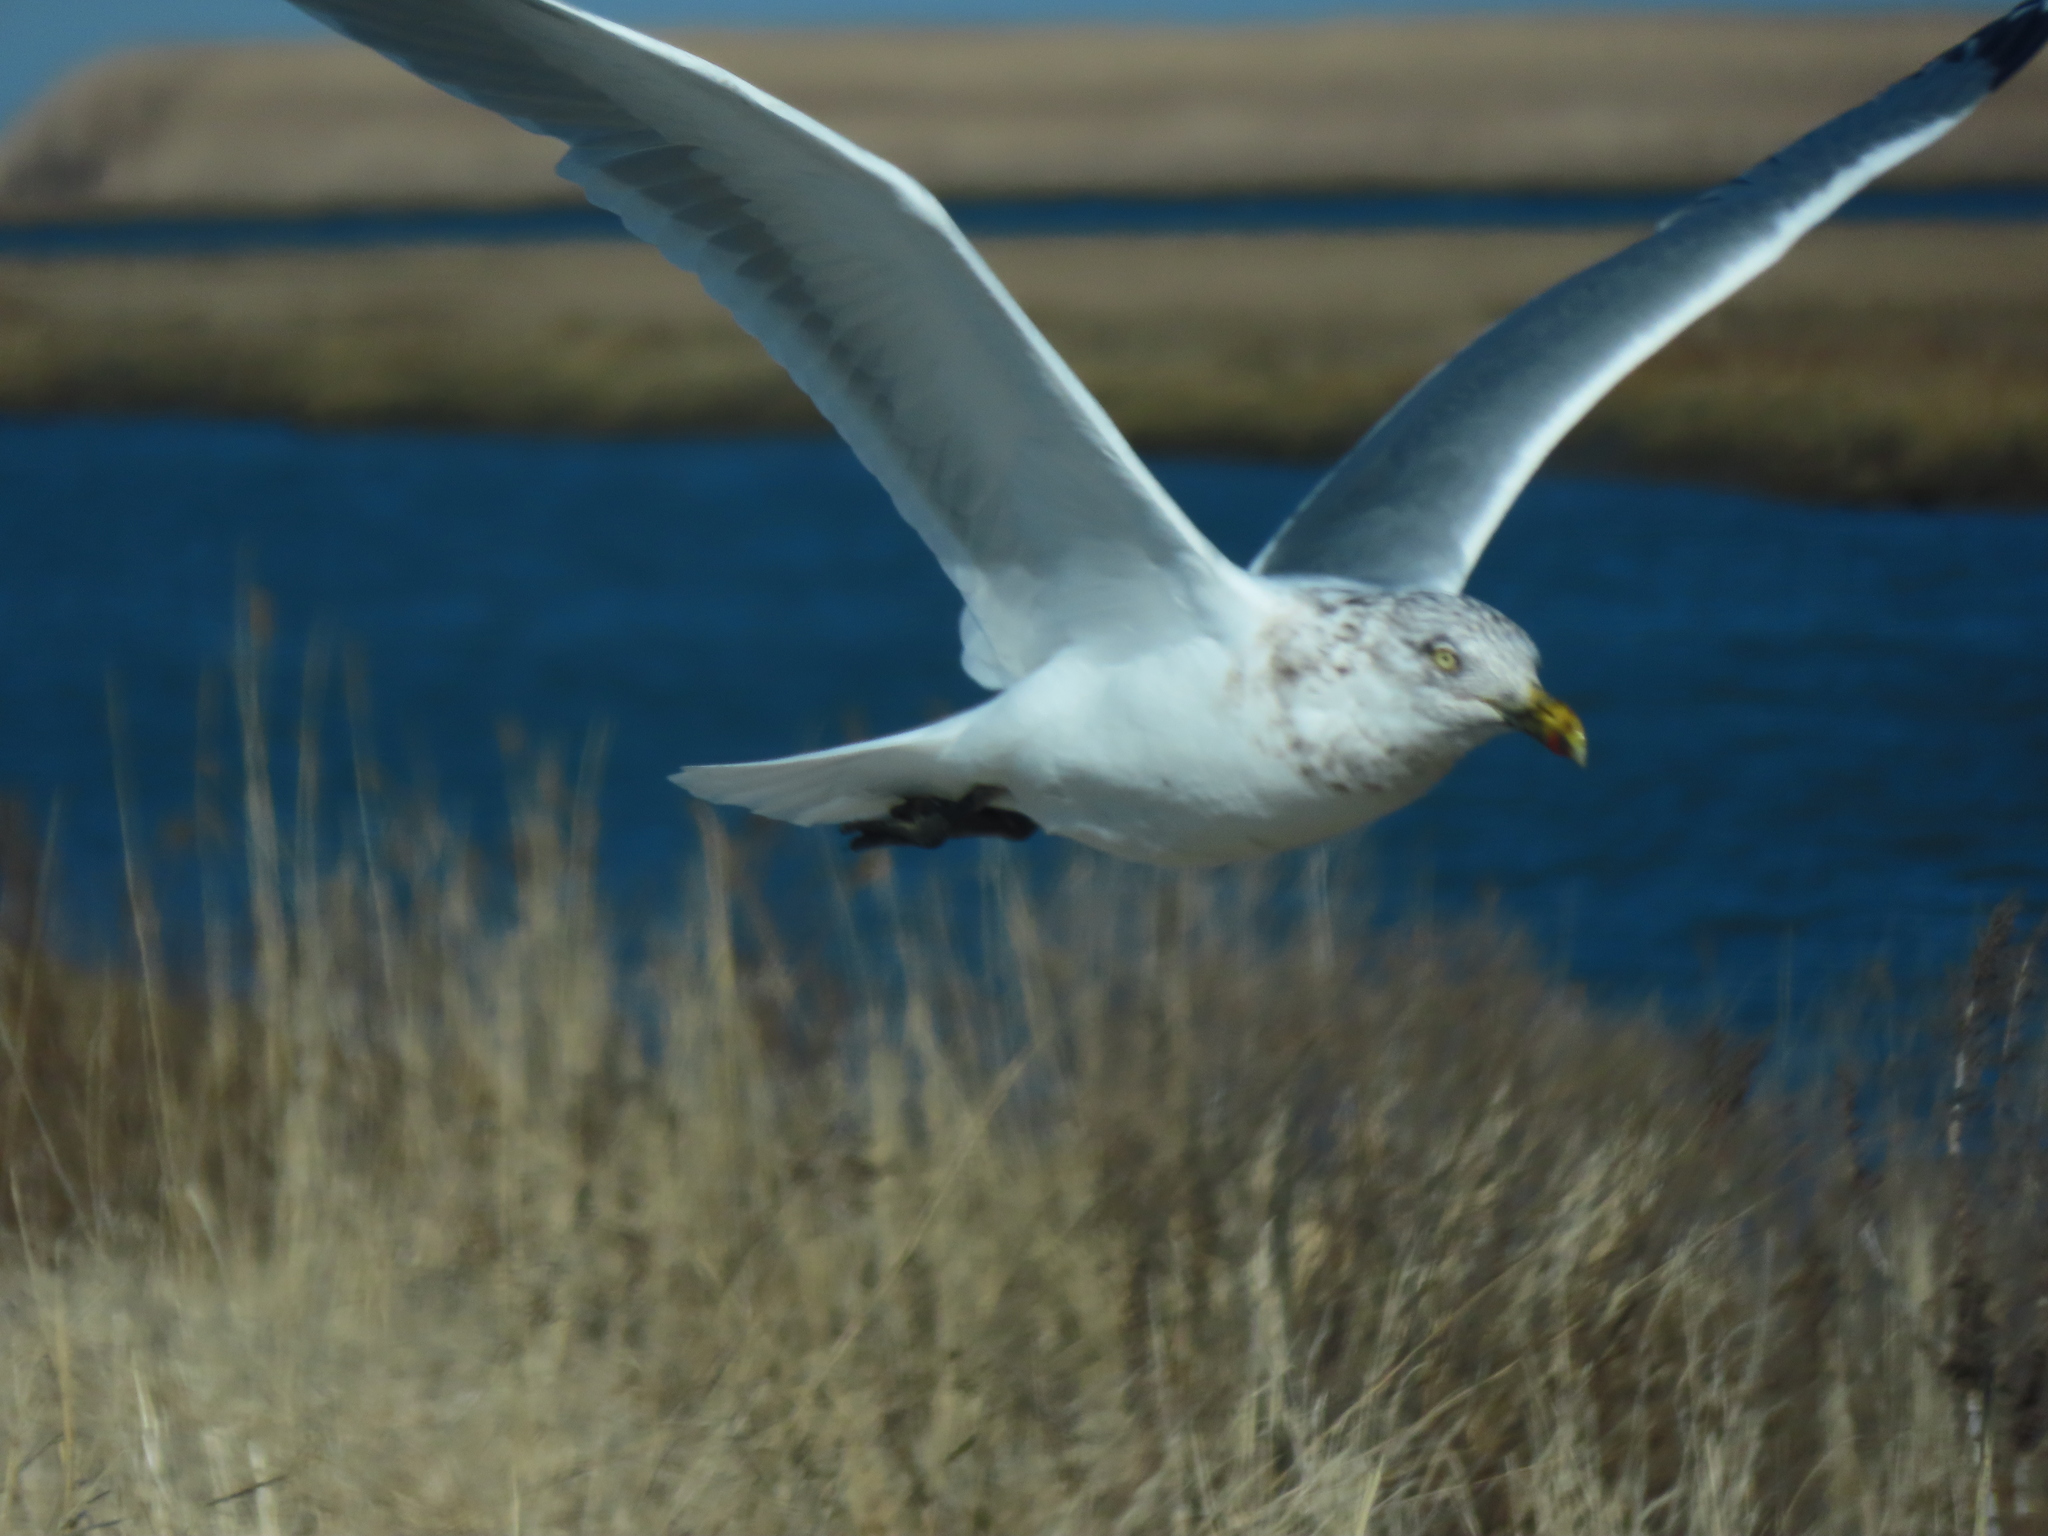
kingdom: Animalia
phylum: Chordata
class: Aves
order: Charadriiformes
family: Laridae
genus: Larus
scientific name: Larus argentatus
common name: Herring gull
